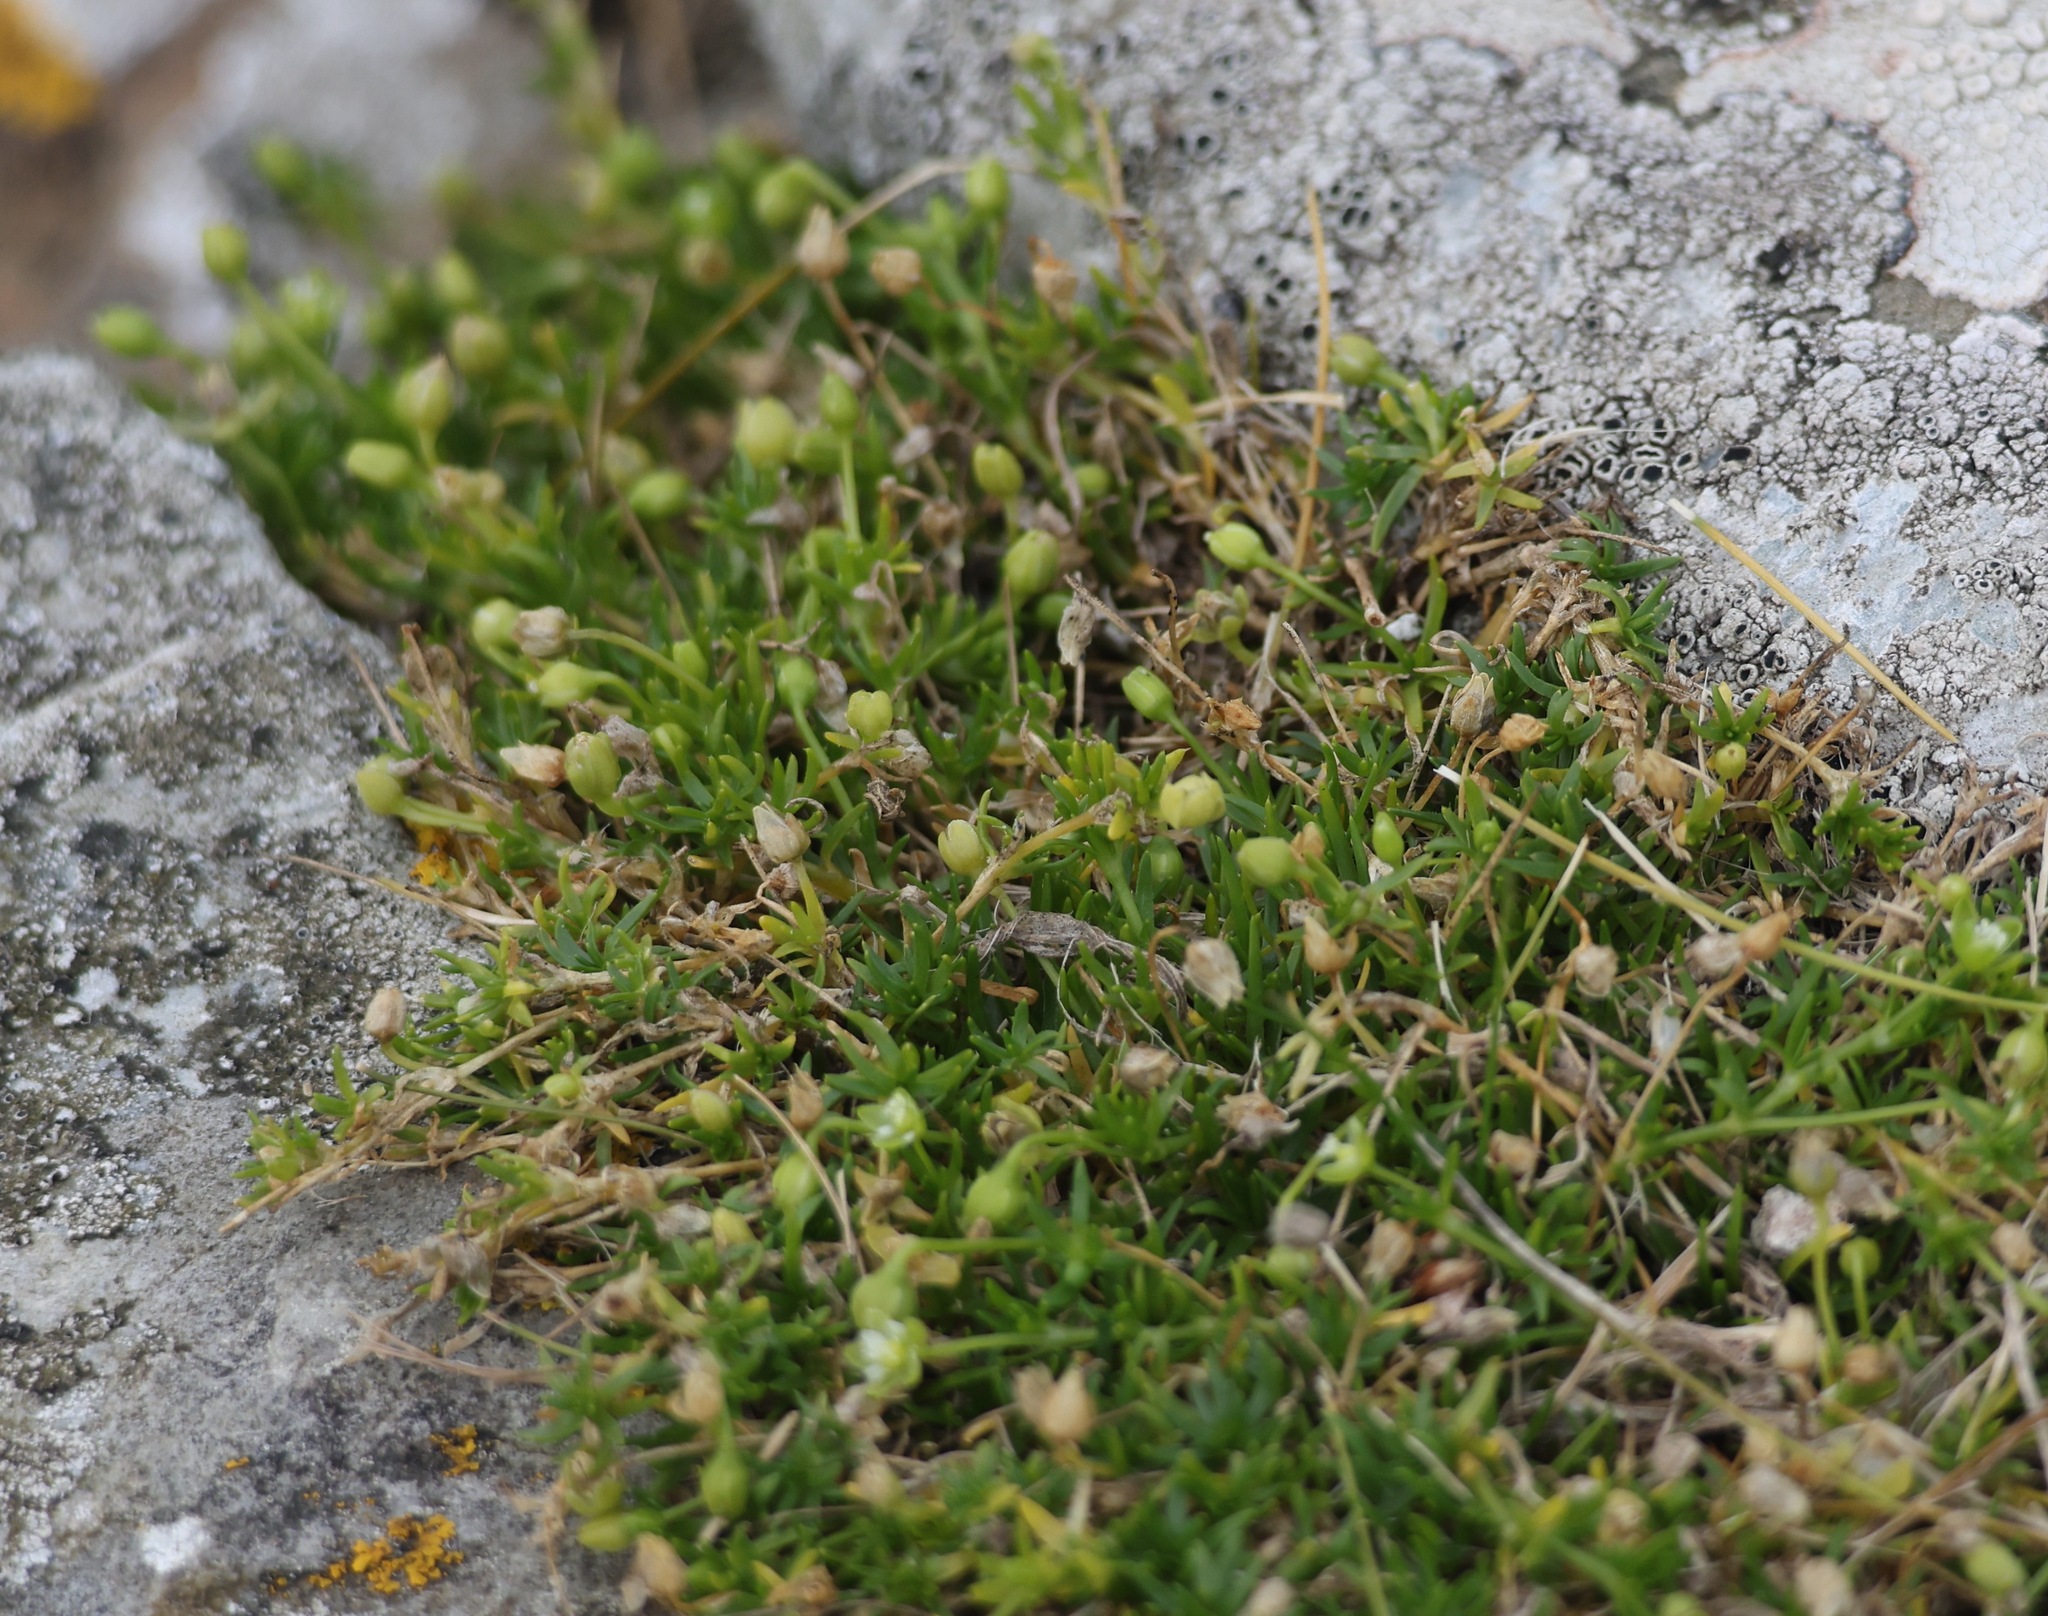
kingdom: Plantae
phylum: Tracheophyta
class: Magnoliopsida
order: Caryophyllales
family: Caryophyllaceae
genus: Sagina
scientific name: Sagina procumbens
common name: Procumbent pearlwort
